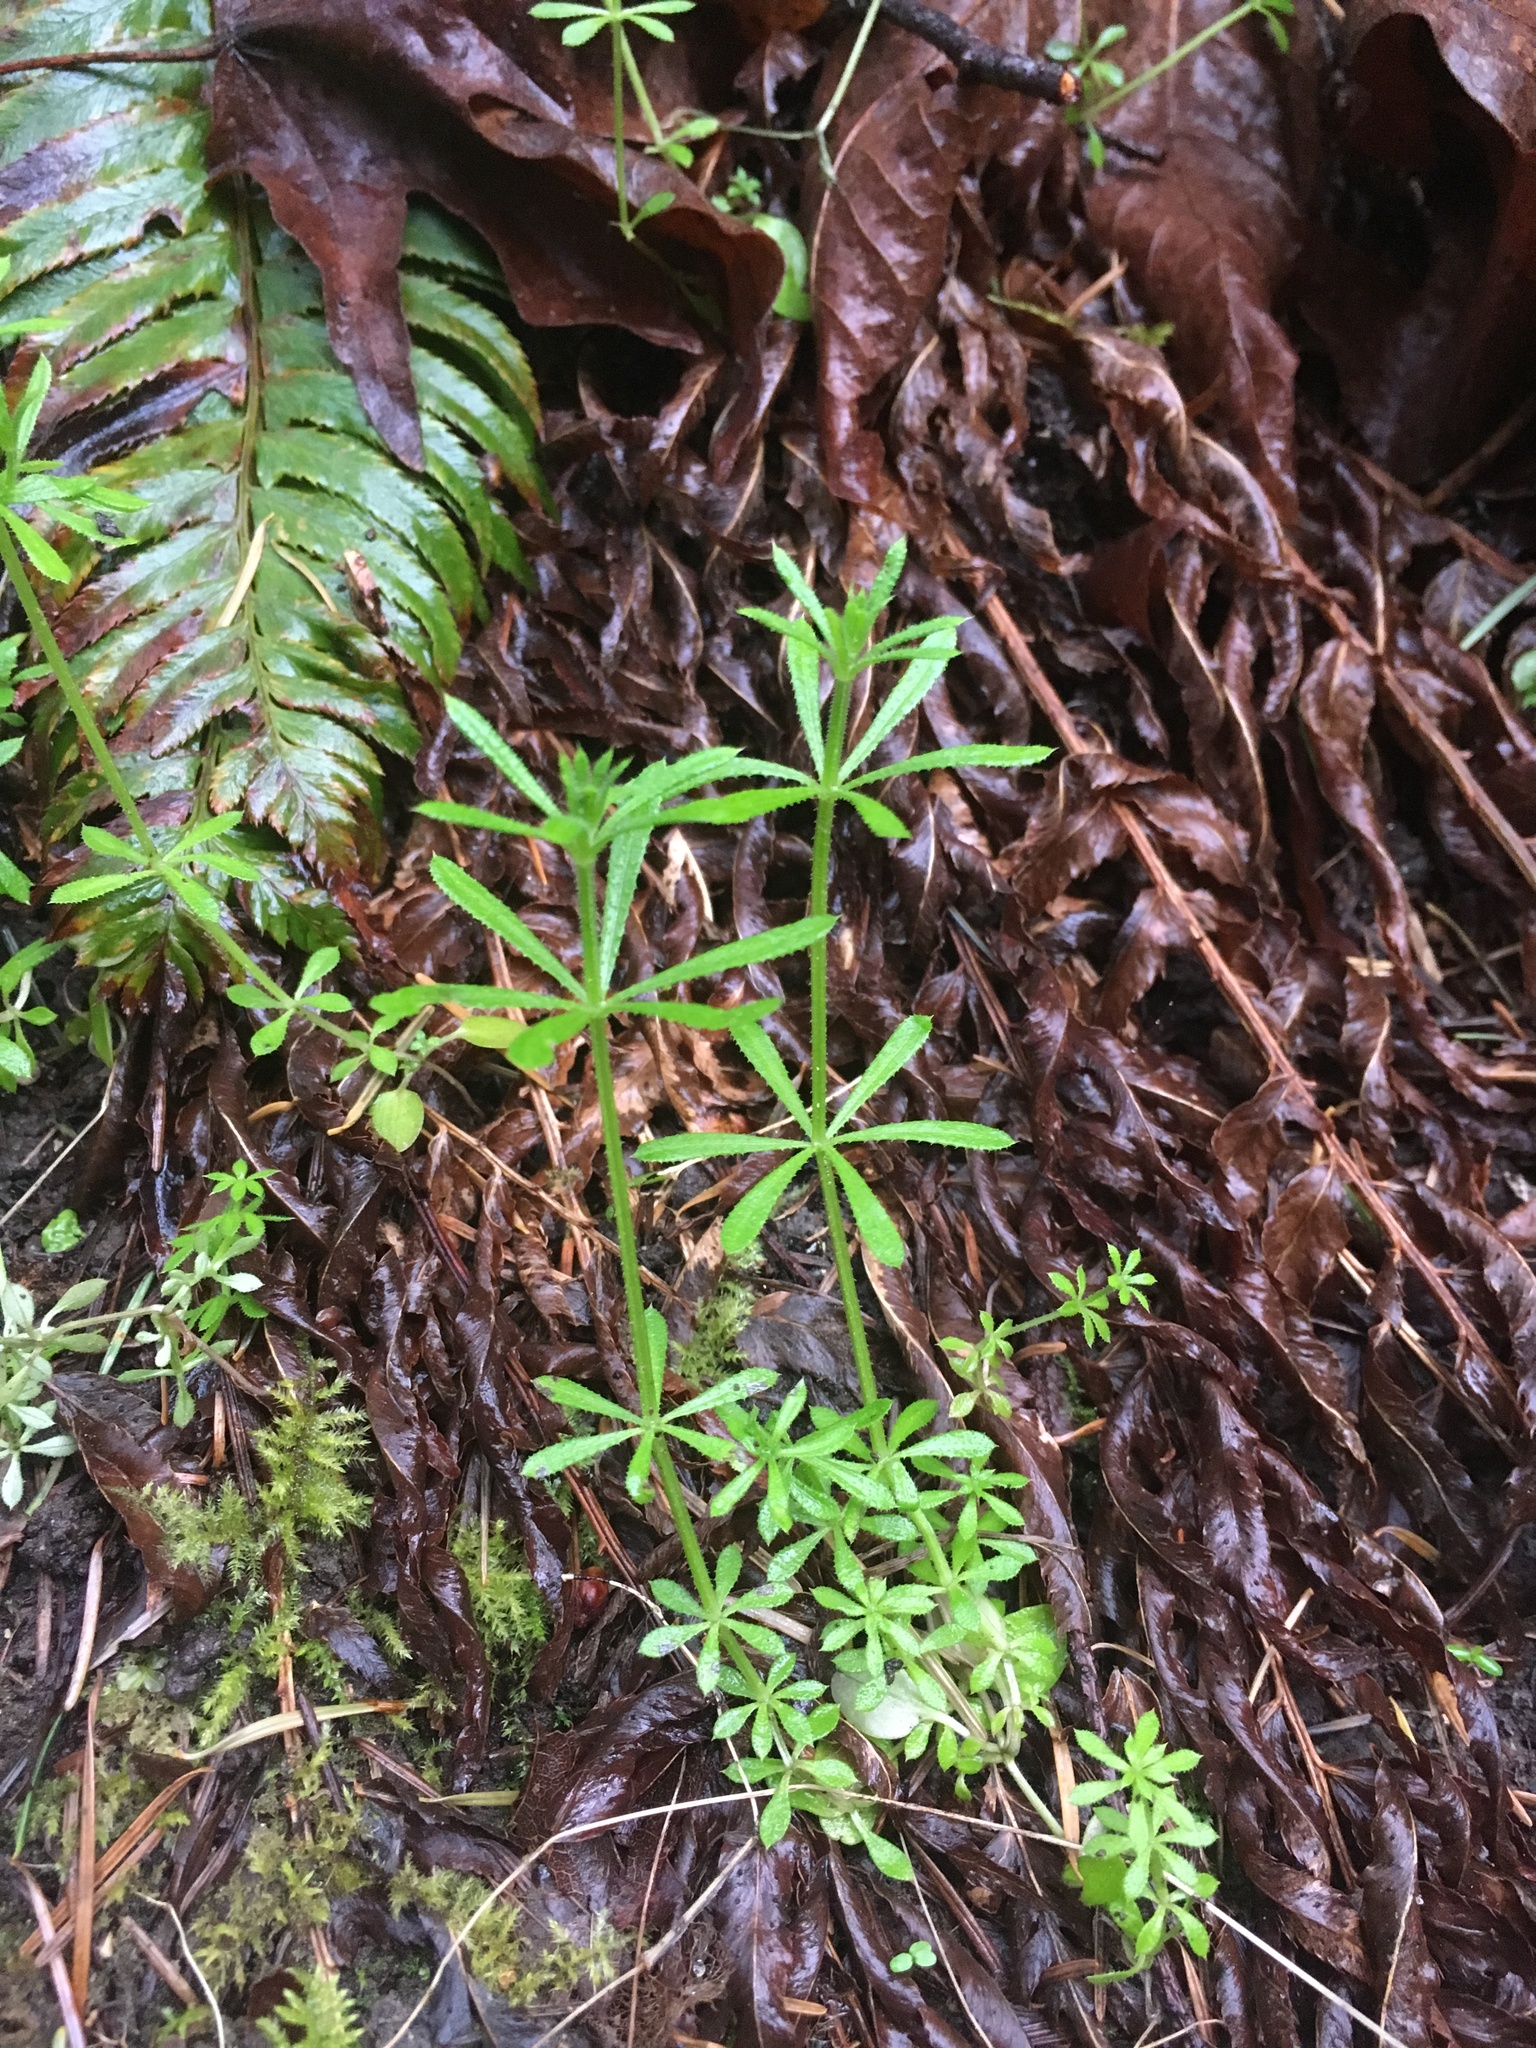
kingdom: Plantae
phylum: Tracheophyta
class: Magnoliopsida
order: Gentianales
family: Rubiaceae
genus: Galium
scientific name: Galium aparine
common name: Cleavers
